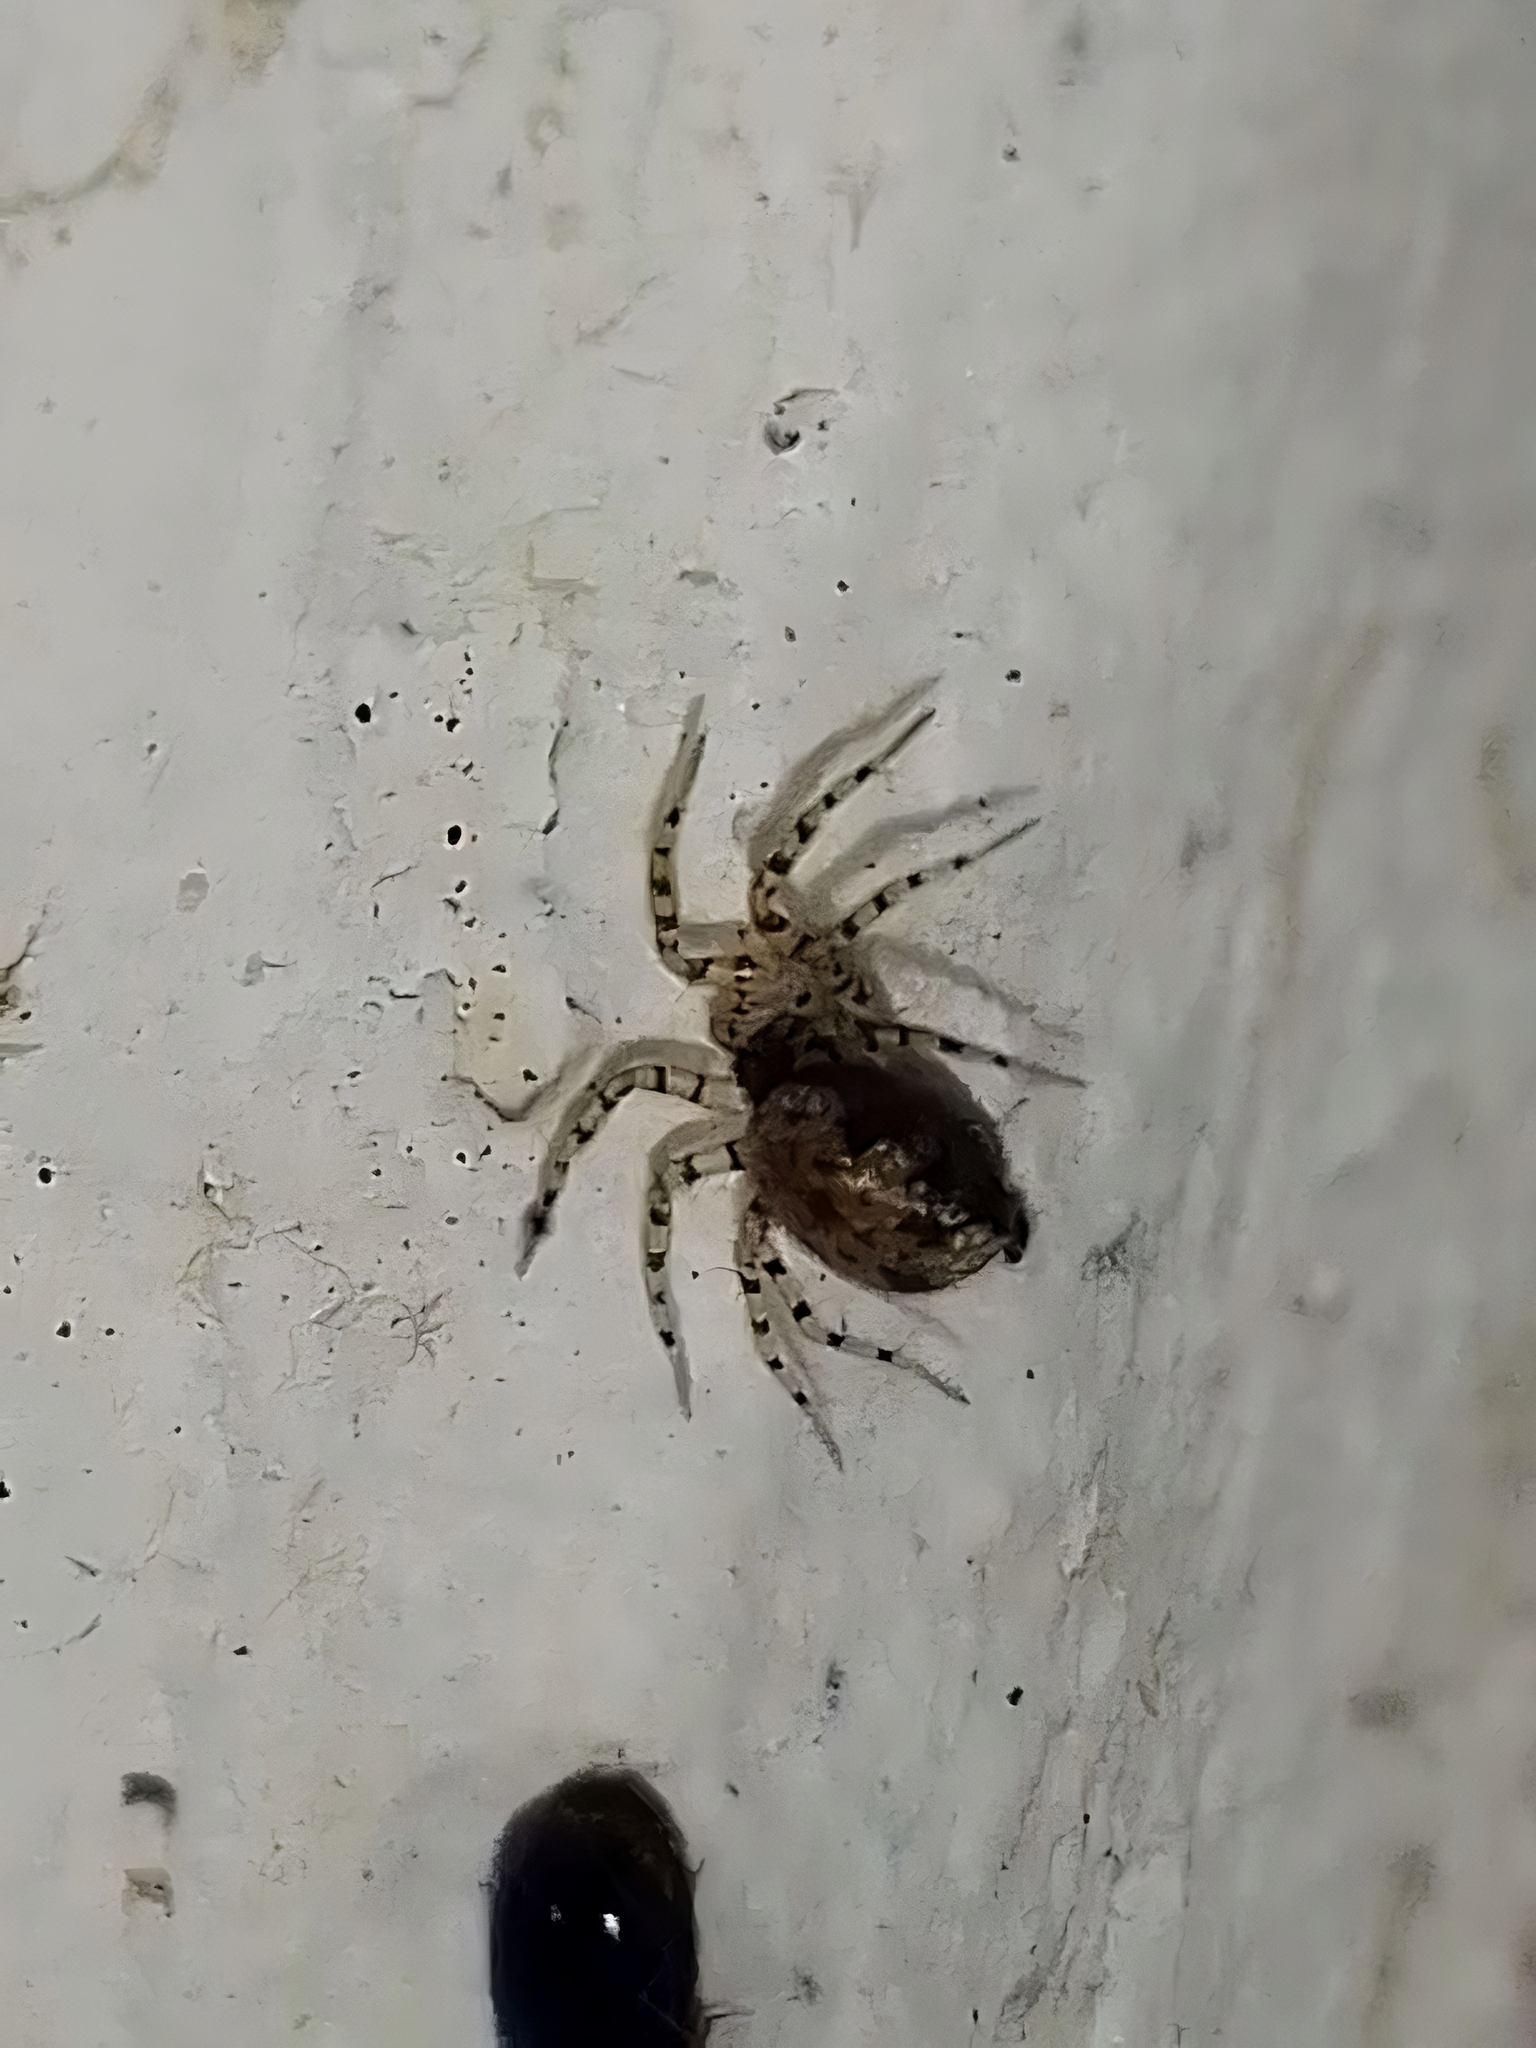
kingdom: Animalia
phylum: Arthropoda
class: Arachnida
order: Araneae
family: Oecobiidae
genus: Oecobius
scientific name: Oecobius navus
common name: Flatmesh weaver
